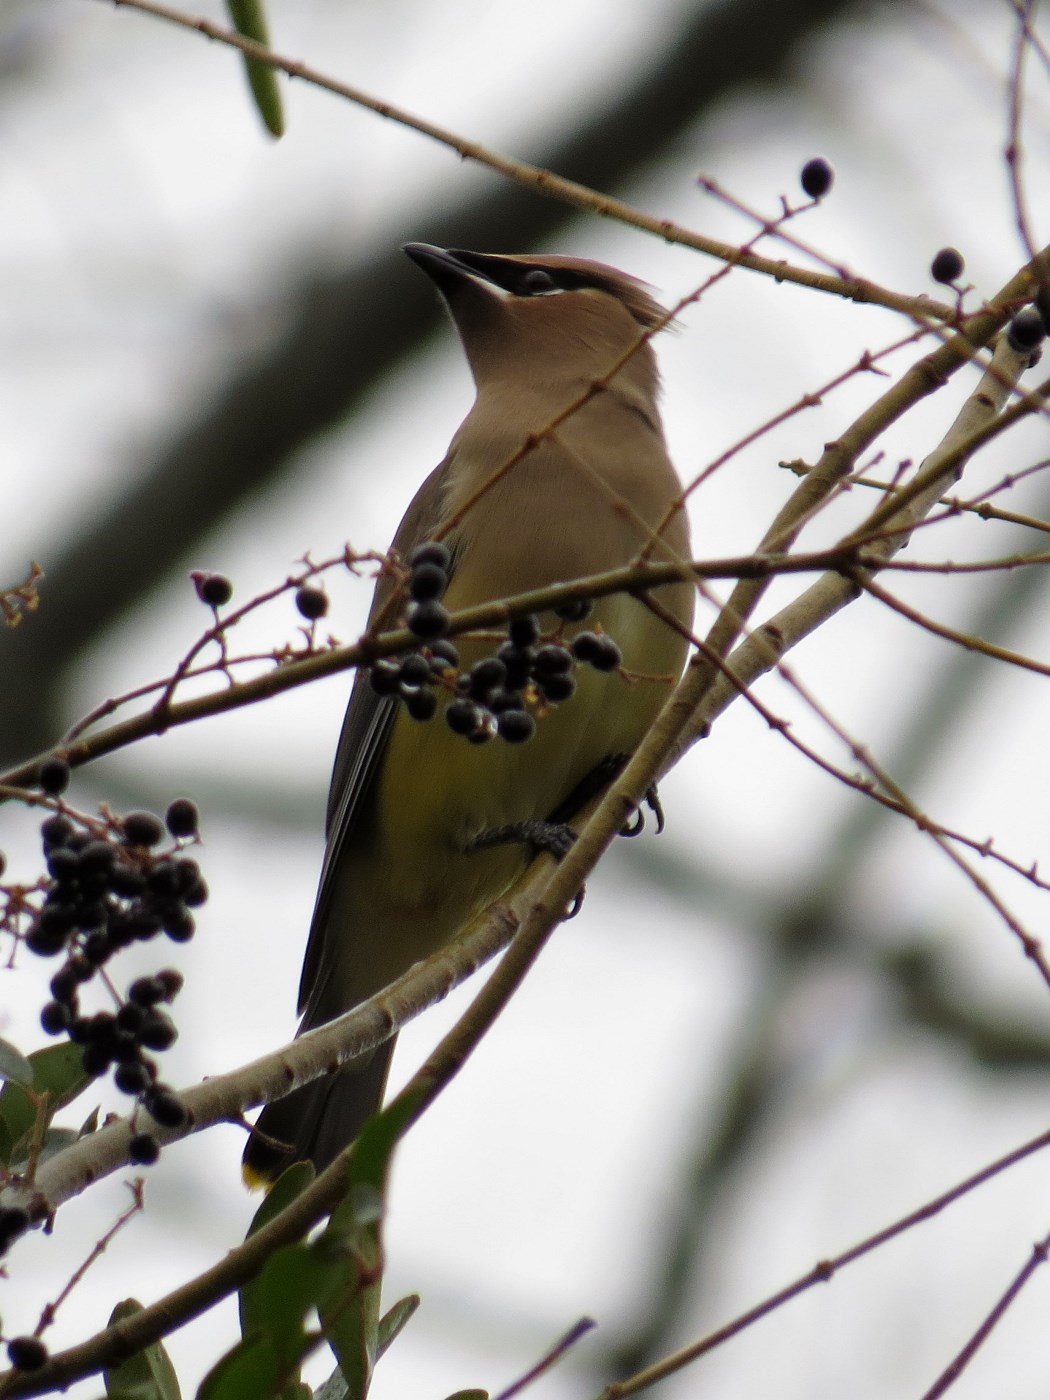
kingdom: Animalia
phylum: Chordata
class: Aves
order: Passeriformes
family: Bombycillidae
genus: Bombycilla
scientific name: Bombycilla cedrorum
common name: Cedar waxwing
